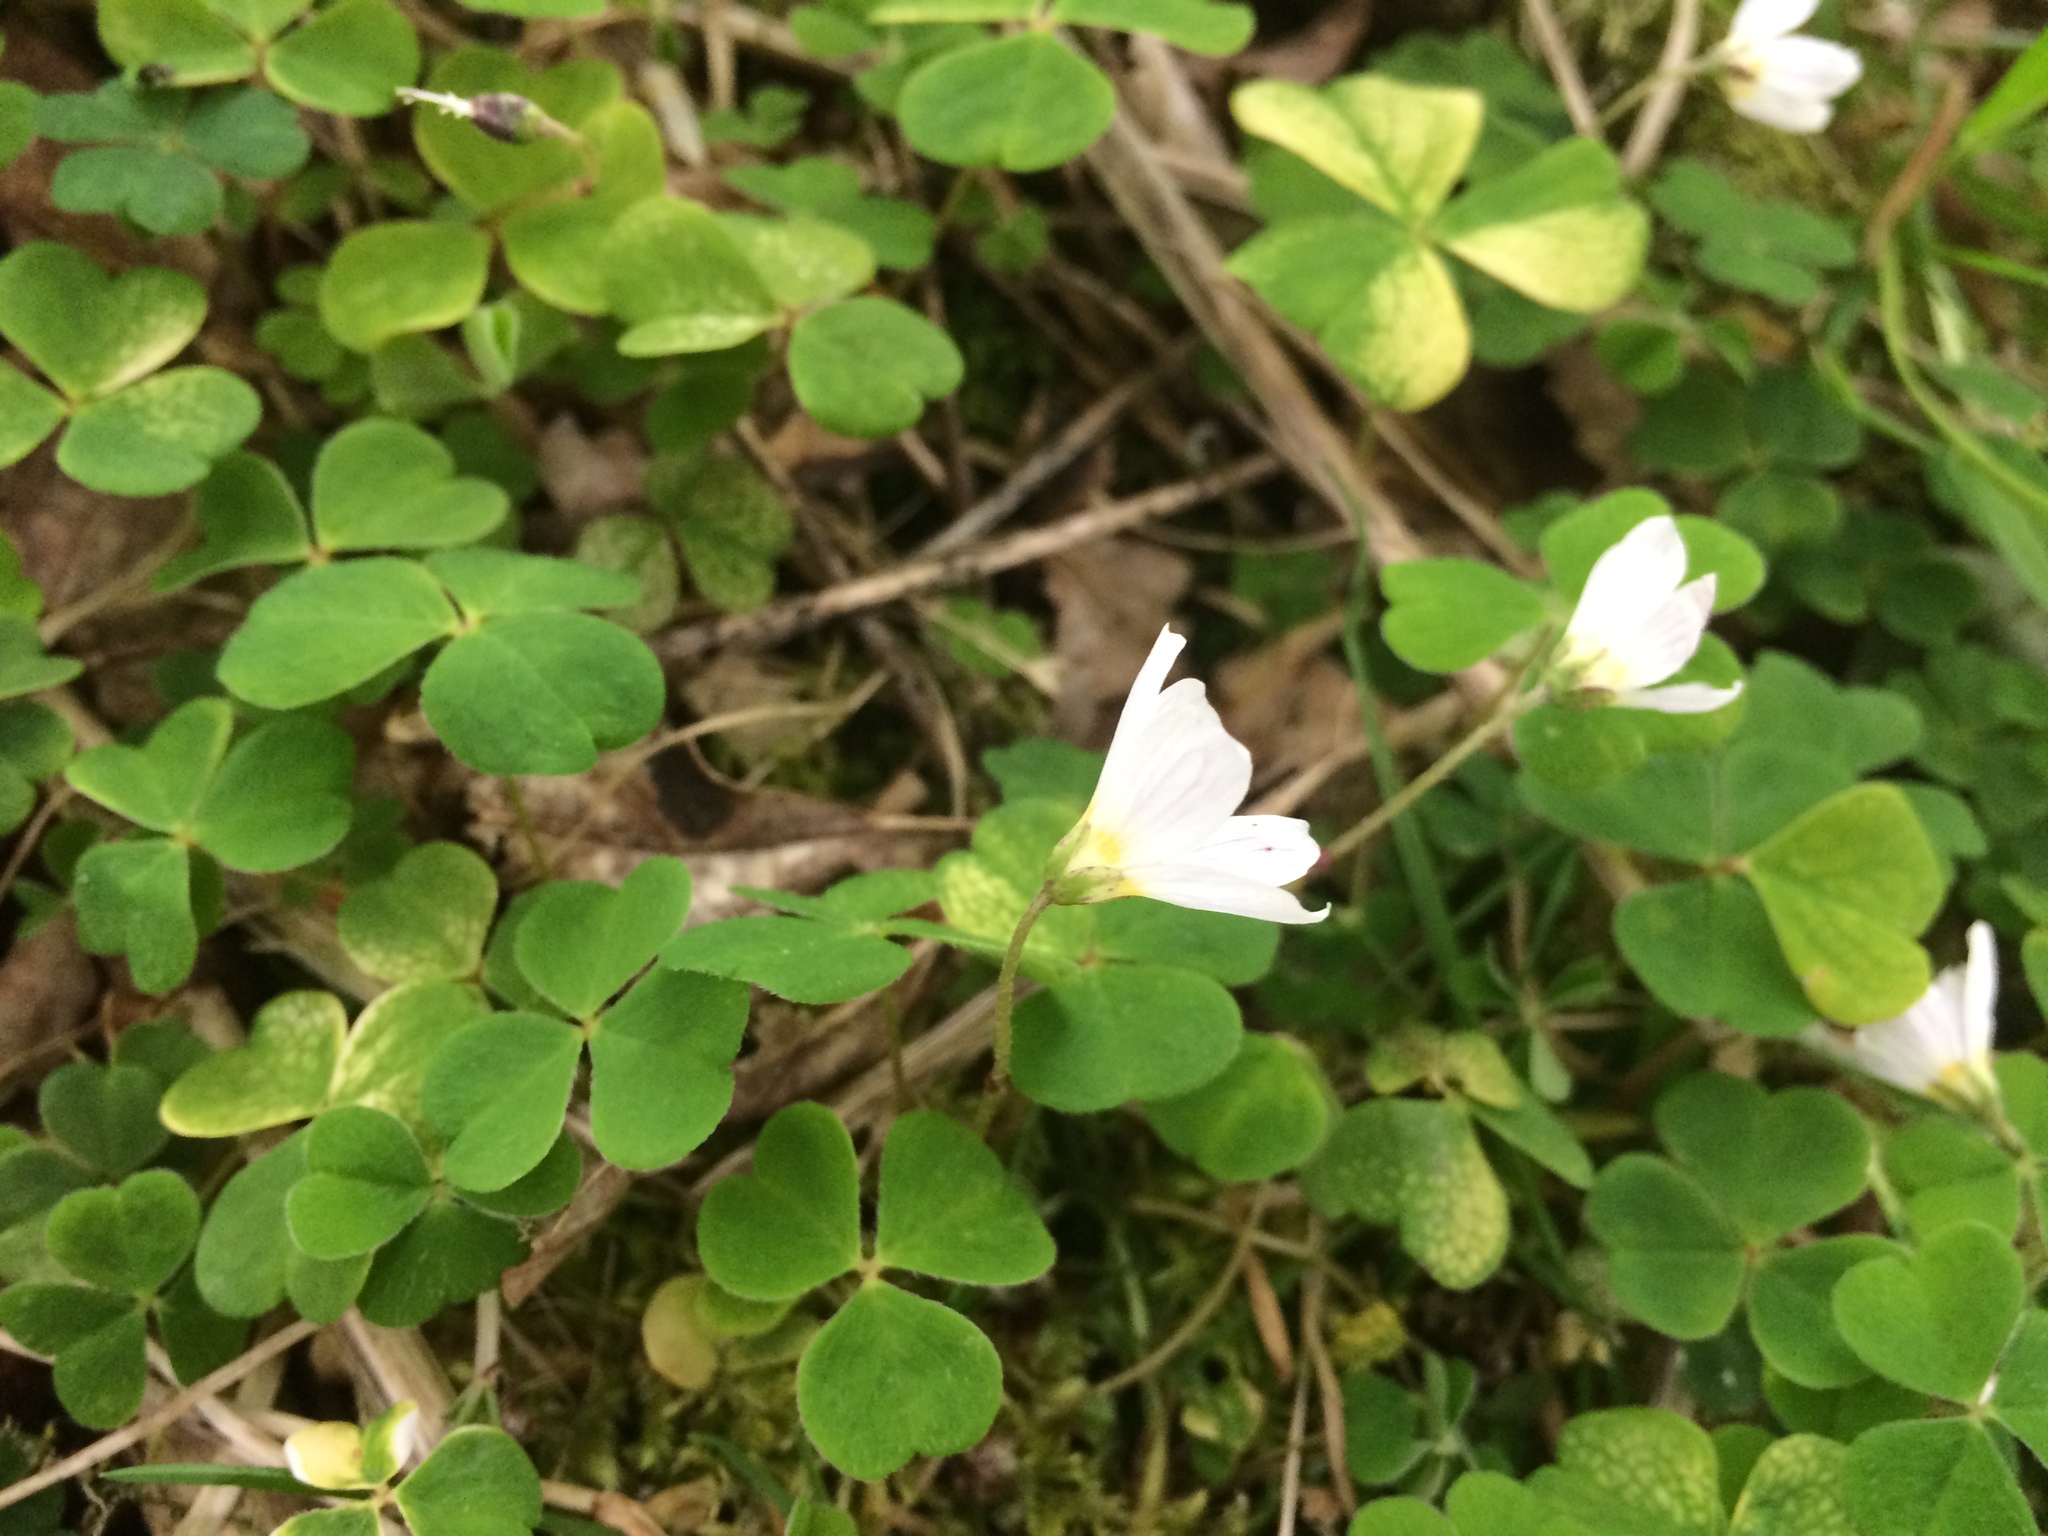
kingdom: Plantae
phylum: Tracheophyta
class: Magnoliopsida
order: Oxalidales
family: Oxalidaceae
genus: Oxalis
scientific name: Oxalis acetosella
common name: Wood-sorrel
